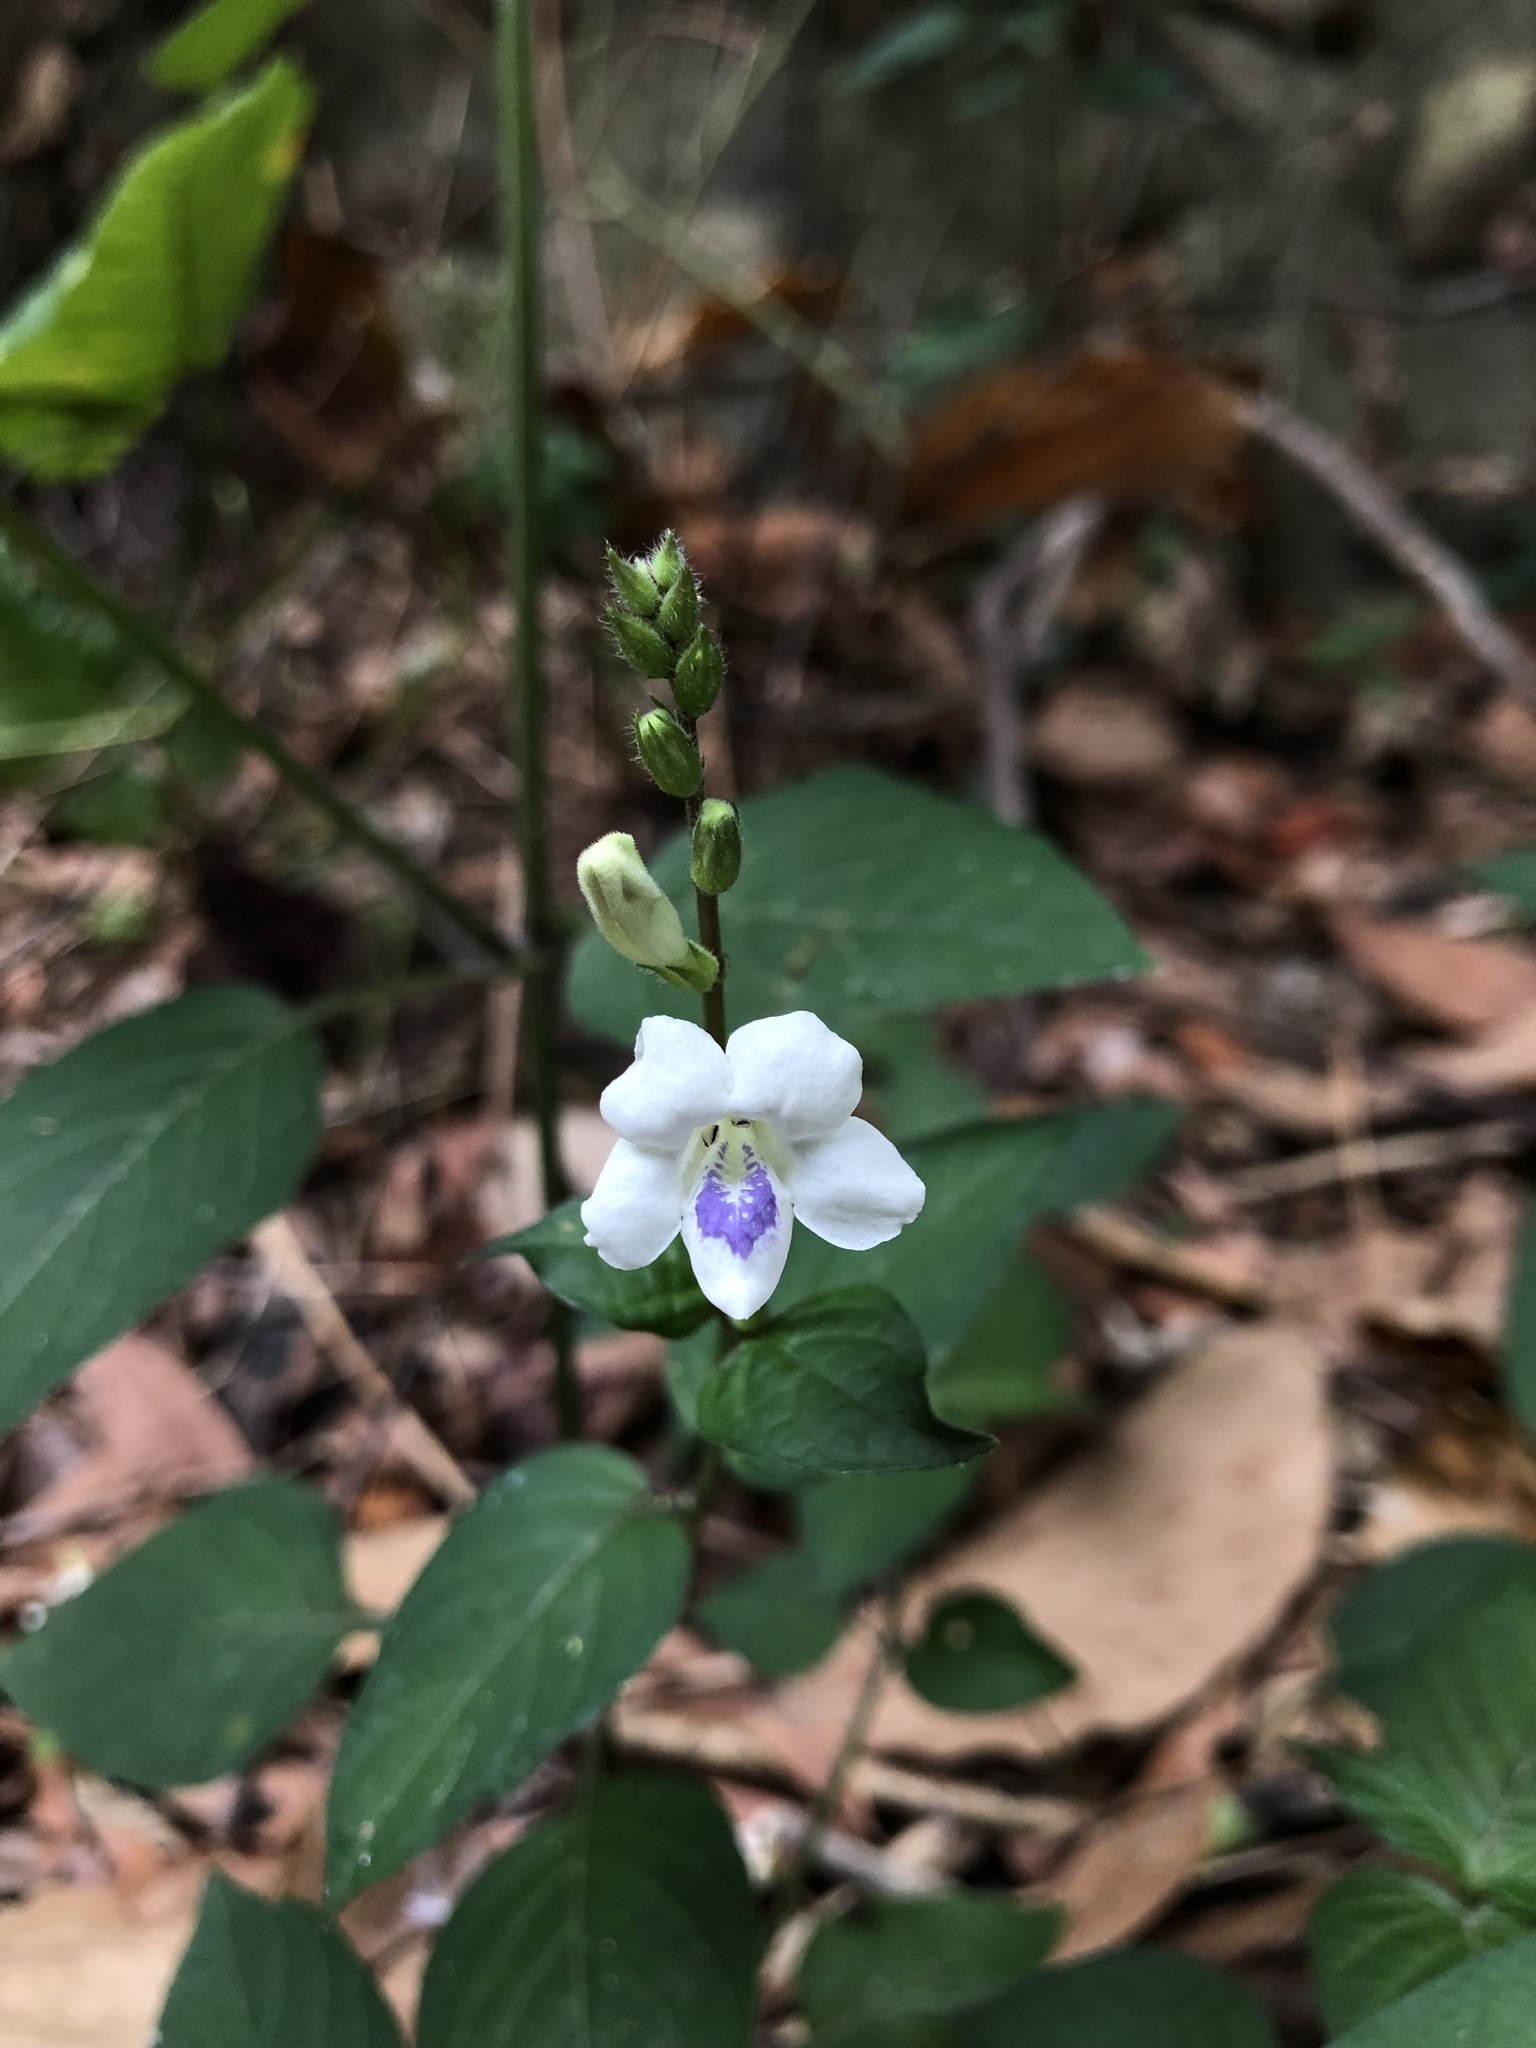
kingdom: Plantae
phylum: Tracheophyta
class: Magnoliopsida
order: Lamiales
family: Acanthaceae
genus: Asystasia
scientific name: Asystasia intrusa
